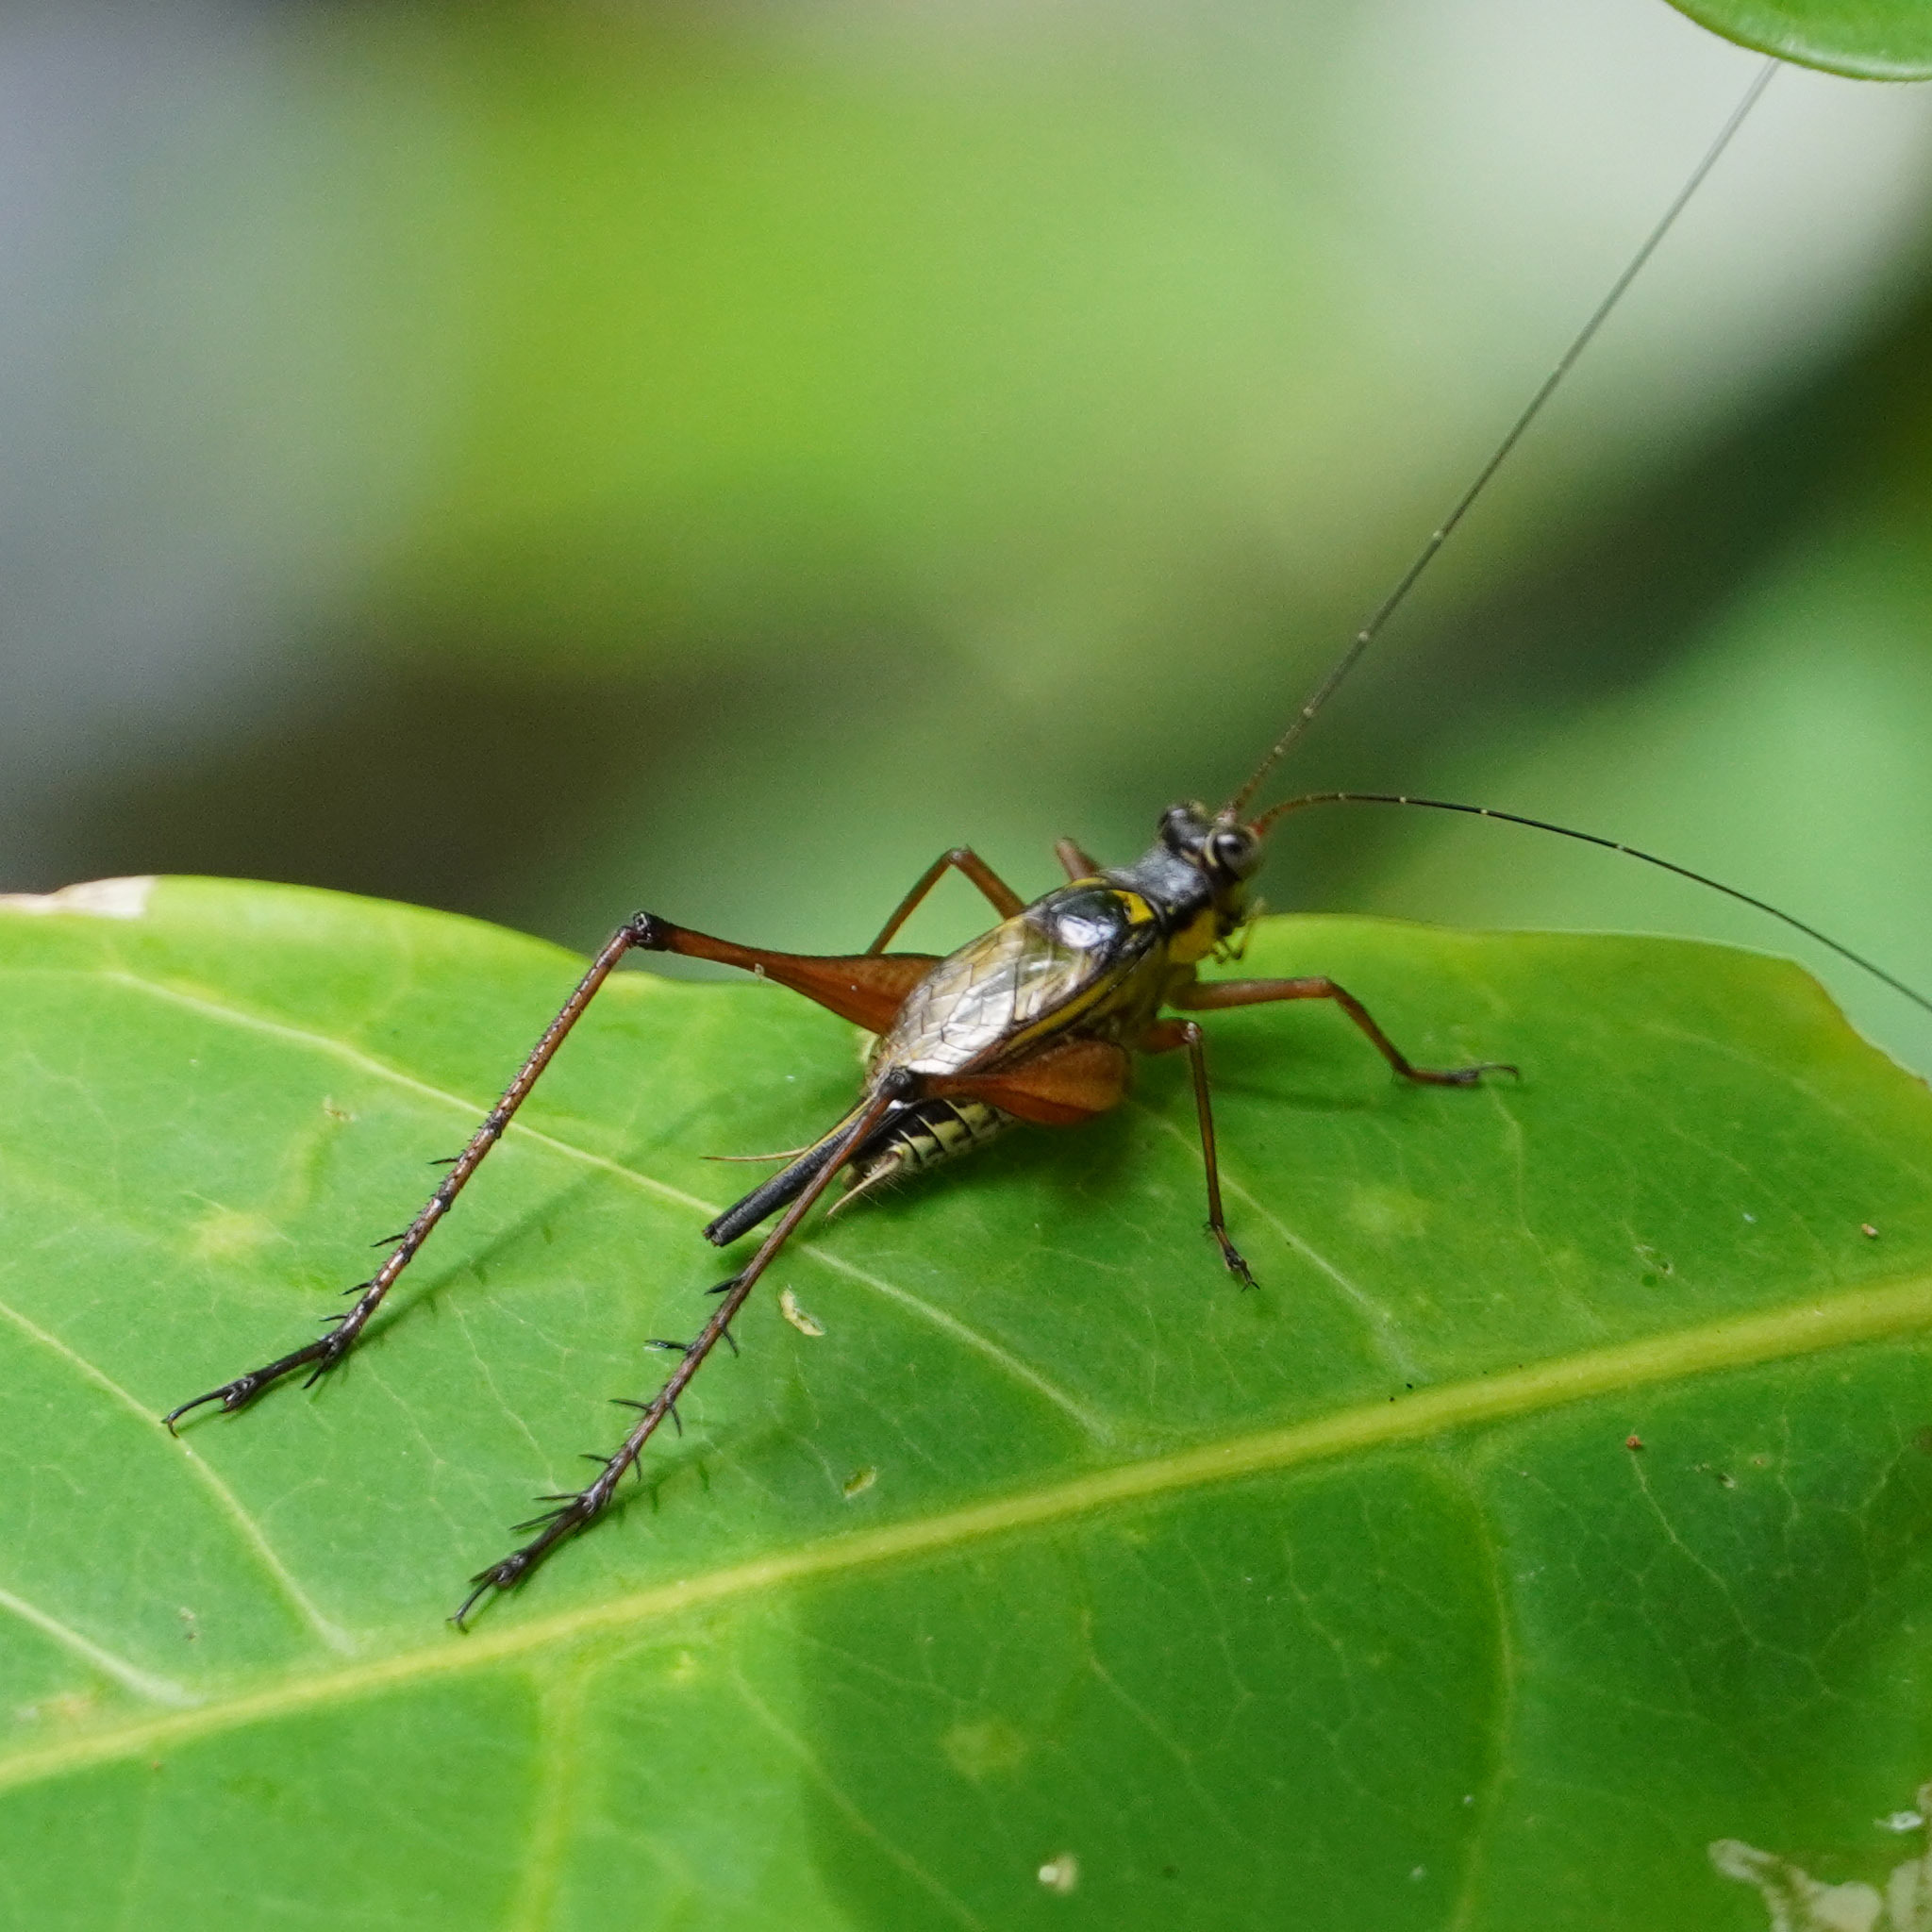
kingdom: Animalia
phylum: Arthropoda
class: Insecta
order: Orthoptera
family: Gryllidae
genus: Nisitrus
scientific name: Nisitrus malaya
